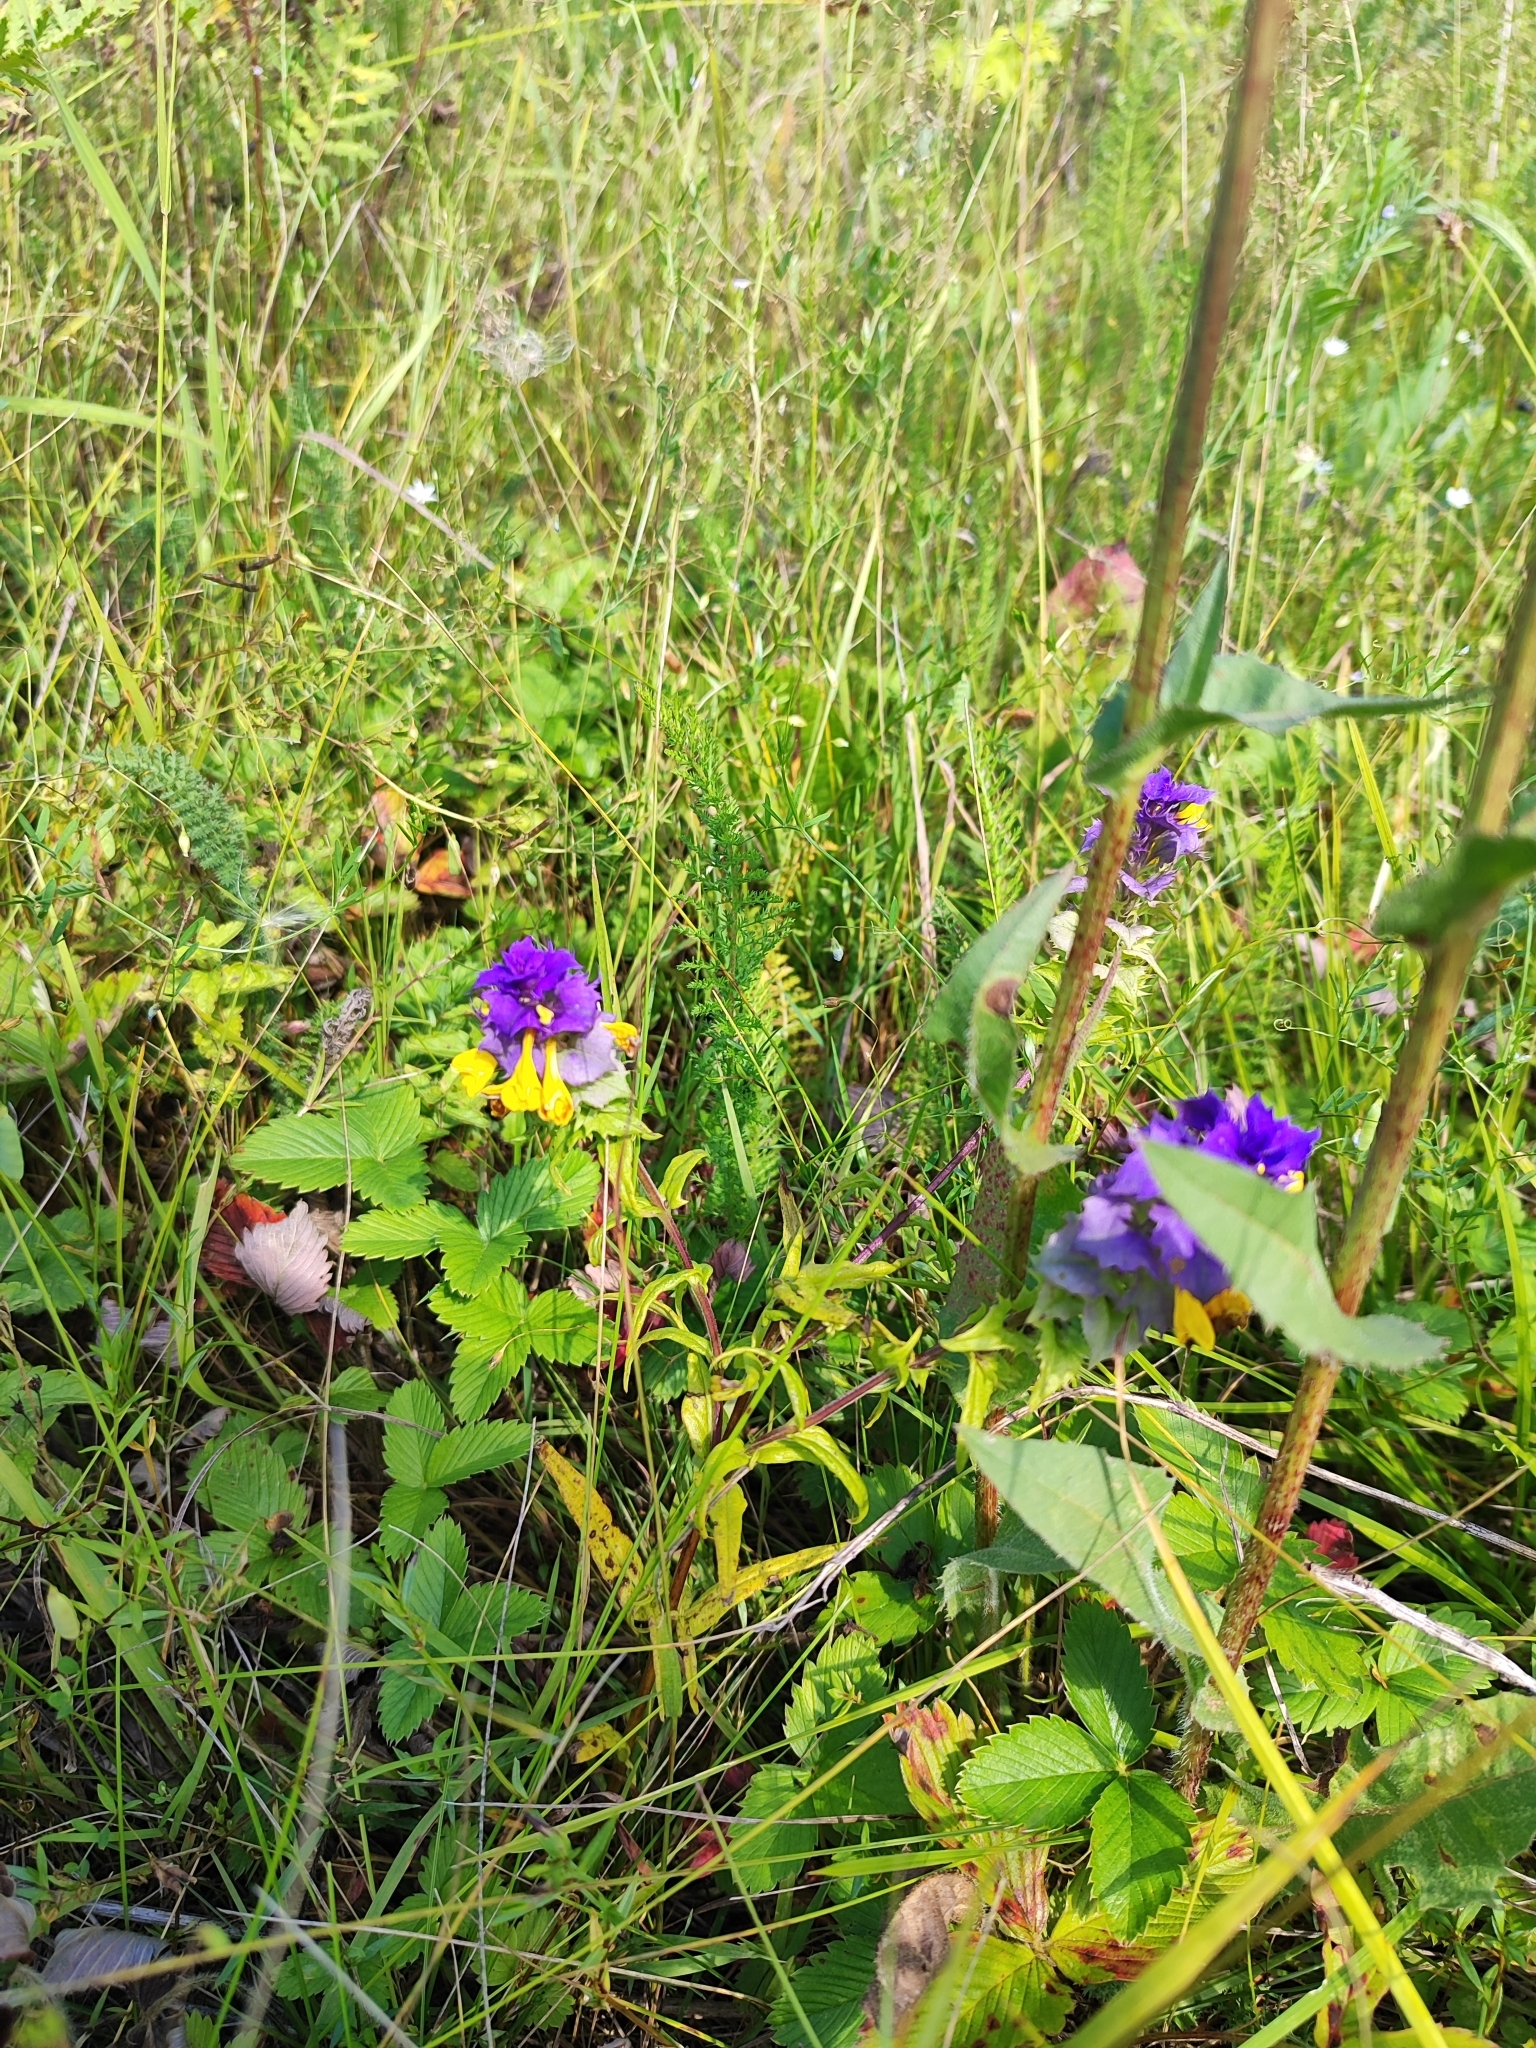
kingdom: Plantae
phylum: Tracheophyta
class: Magnoliopsida
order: Lamiales
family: Orobanchaceae
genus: Melampyrum
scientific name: Melampyrum nemorosum
